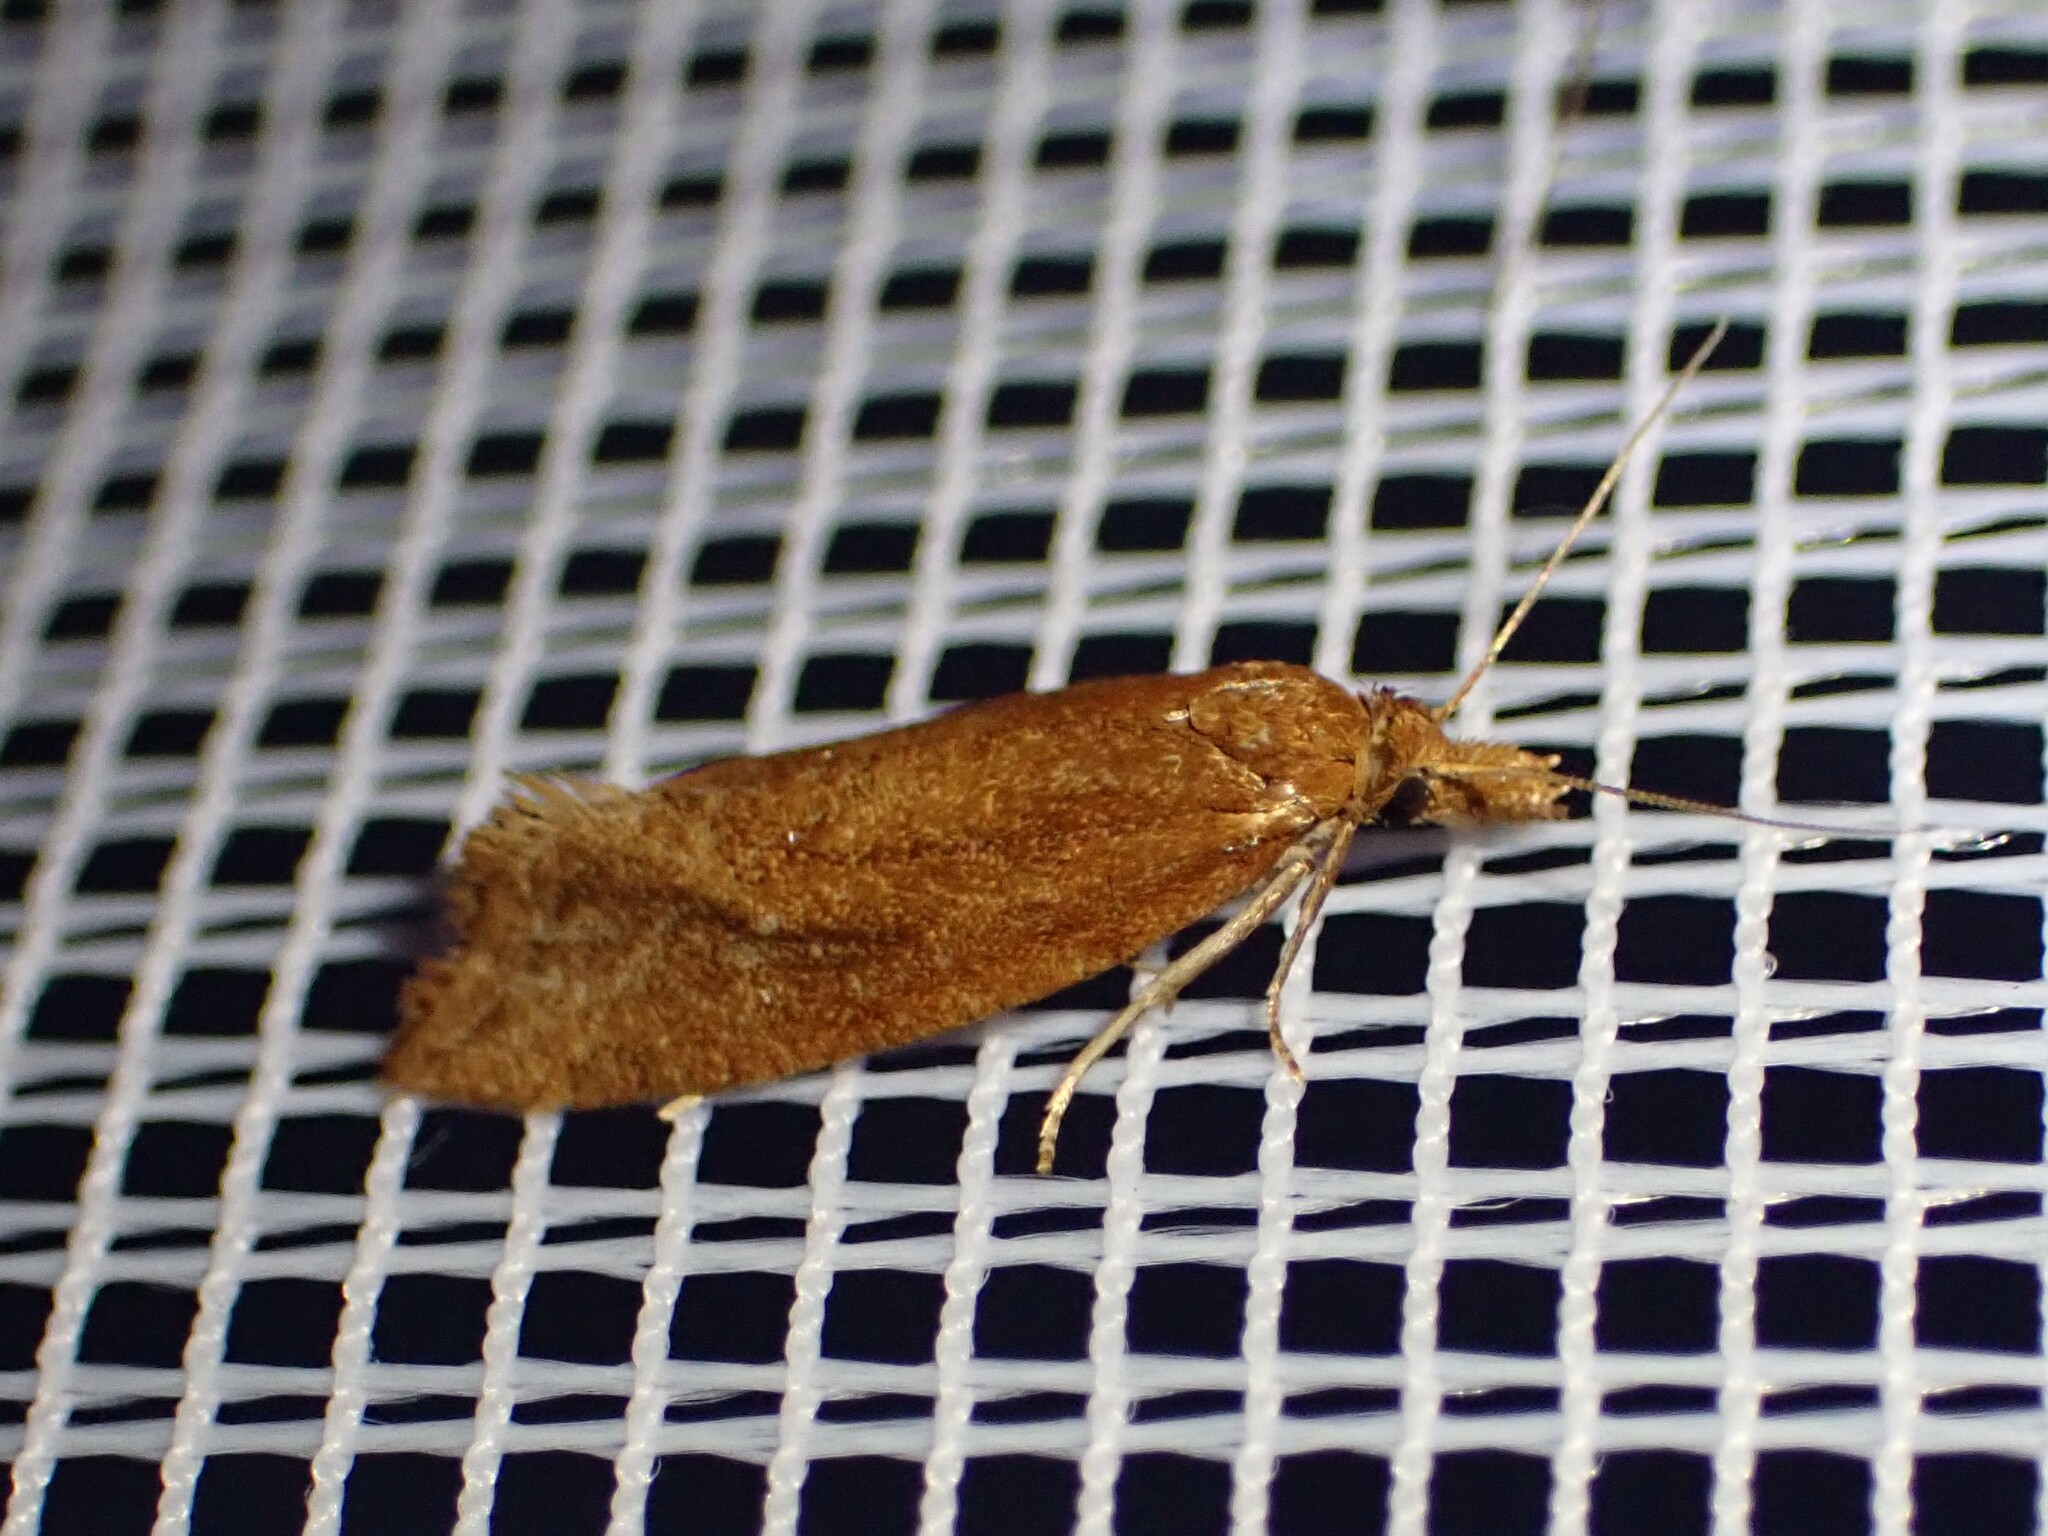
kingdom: Animalia
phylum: Arthropoda
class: Insecta
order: Lepidoptera
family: Tortricidae
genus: Aethes
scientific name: Aethes biscana
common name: Reddish aethes
